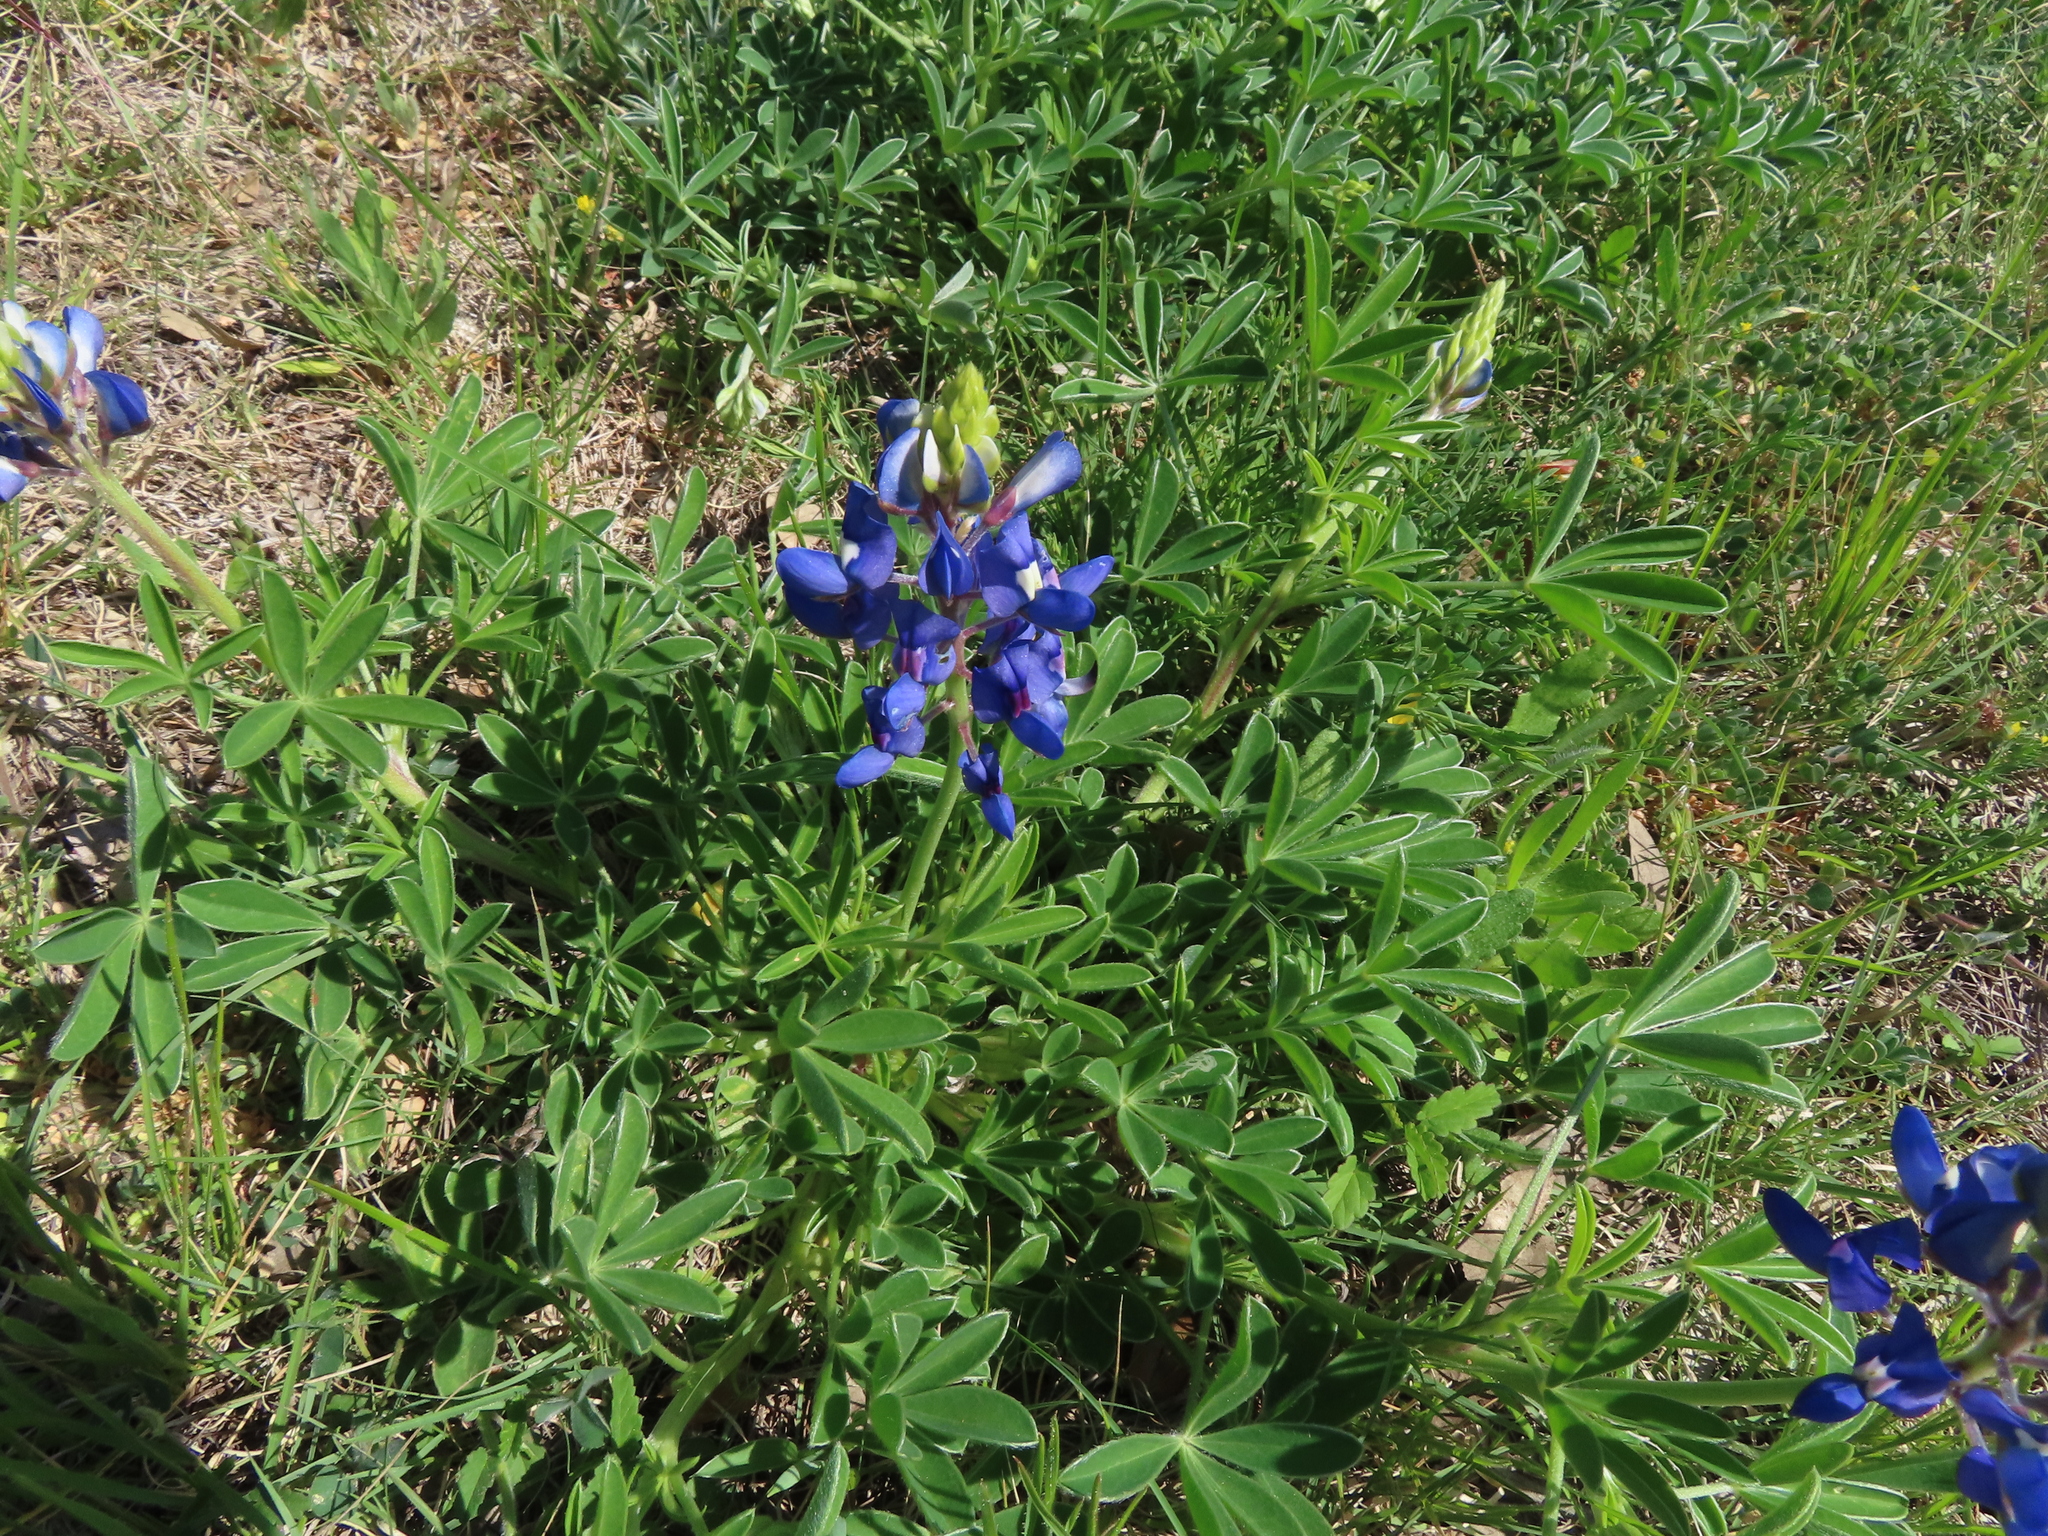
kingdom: Plantae
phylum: Tracheophyta
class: Magnoliopsida
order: Fabales
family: Fabaceae
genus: Lupinus
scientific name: Lupinus texensis
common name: Texas bluebonnet
